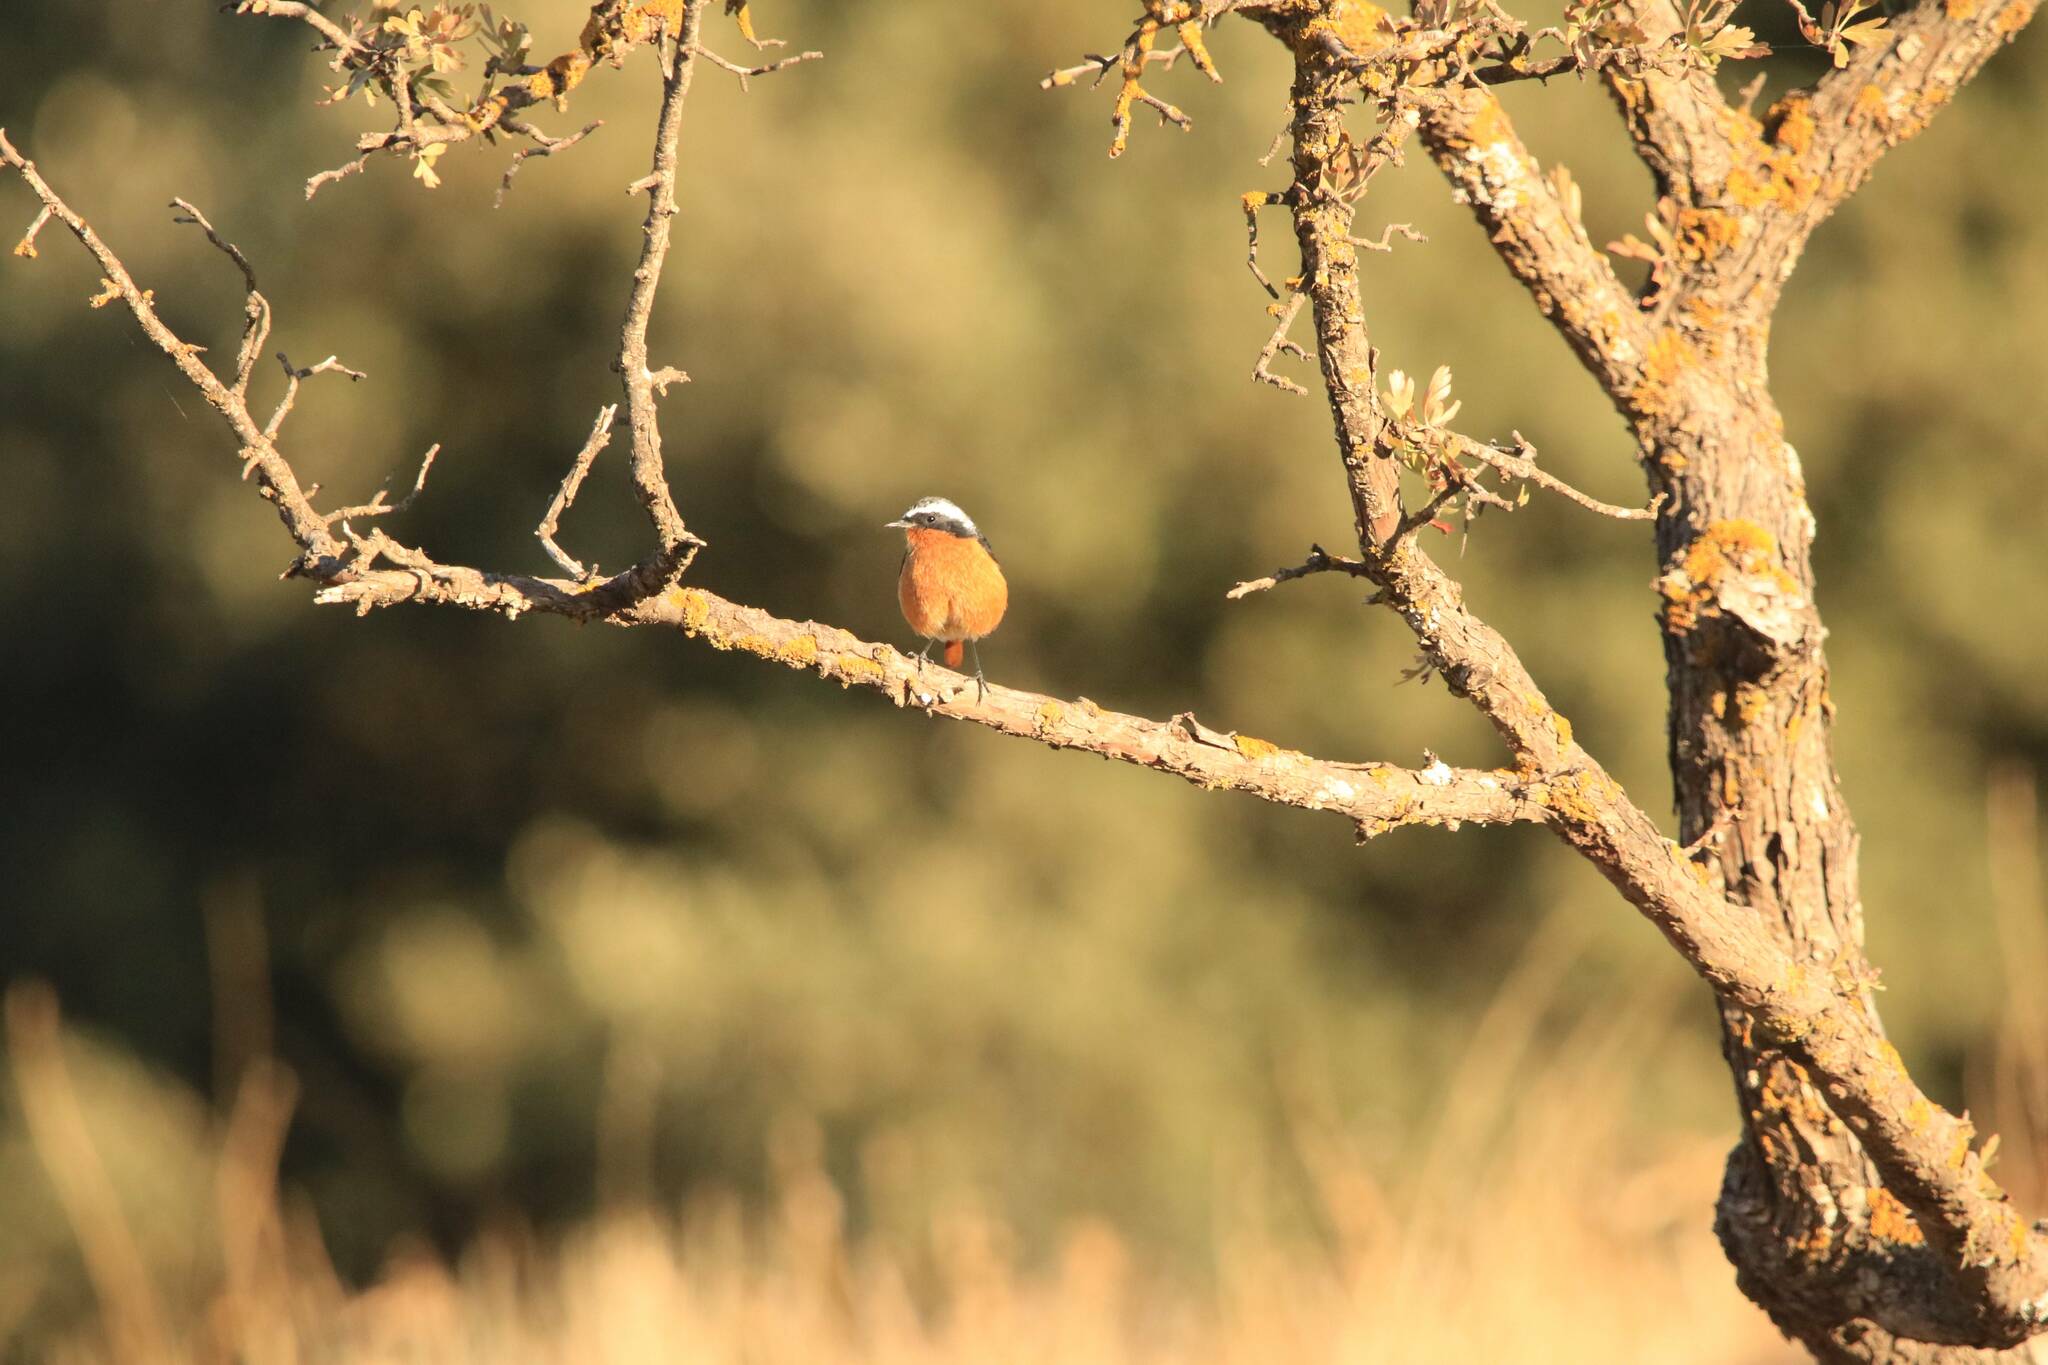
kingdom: Animalia
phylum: Chordata
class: Aves
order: Passeriformes
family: Muscicapidae
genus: Phoenicurus
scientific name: Phoenicurus moussieri
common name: Moussier's redstart
